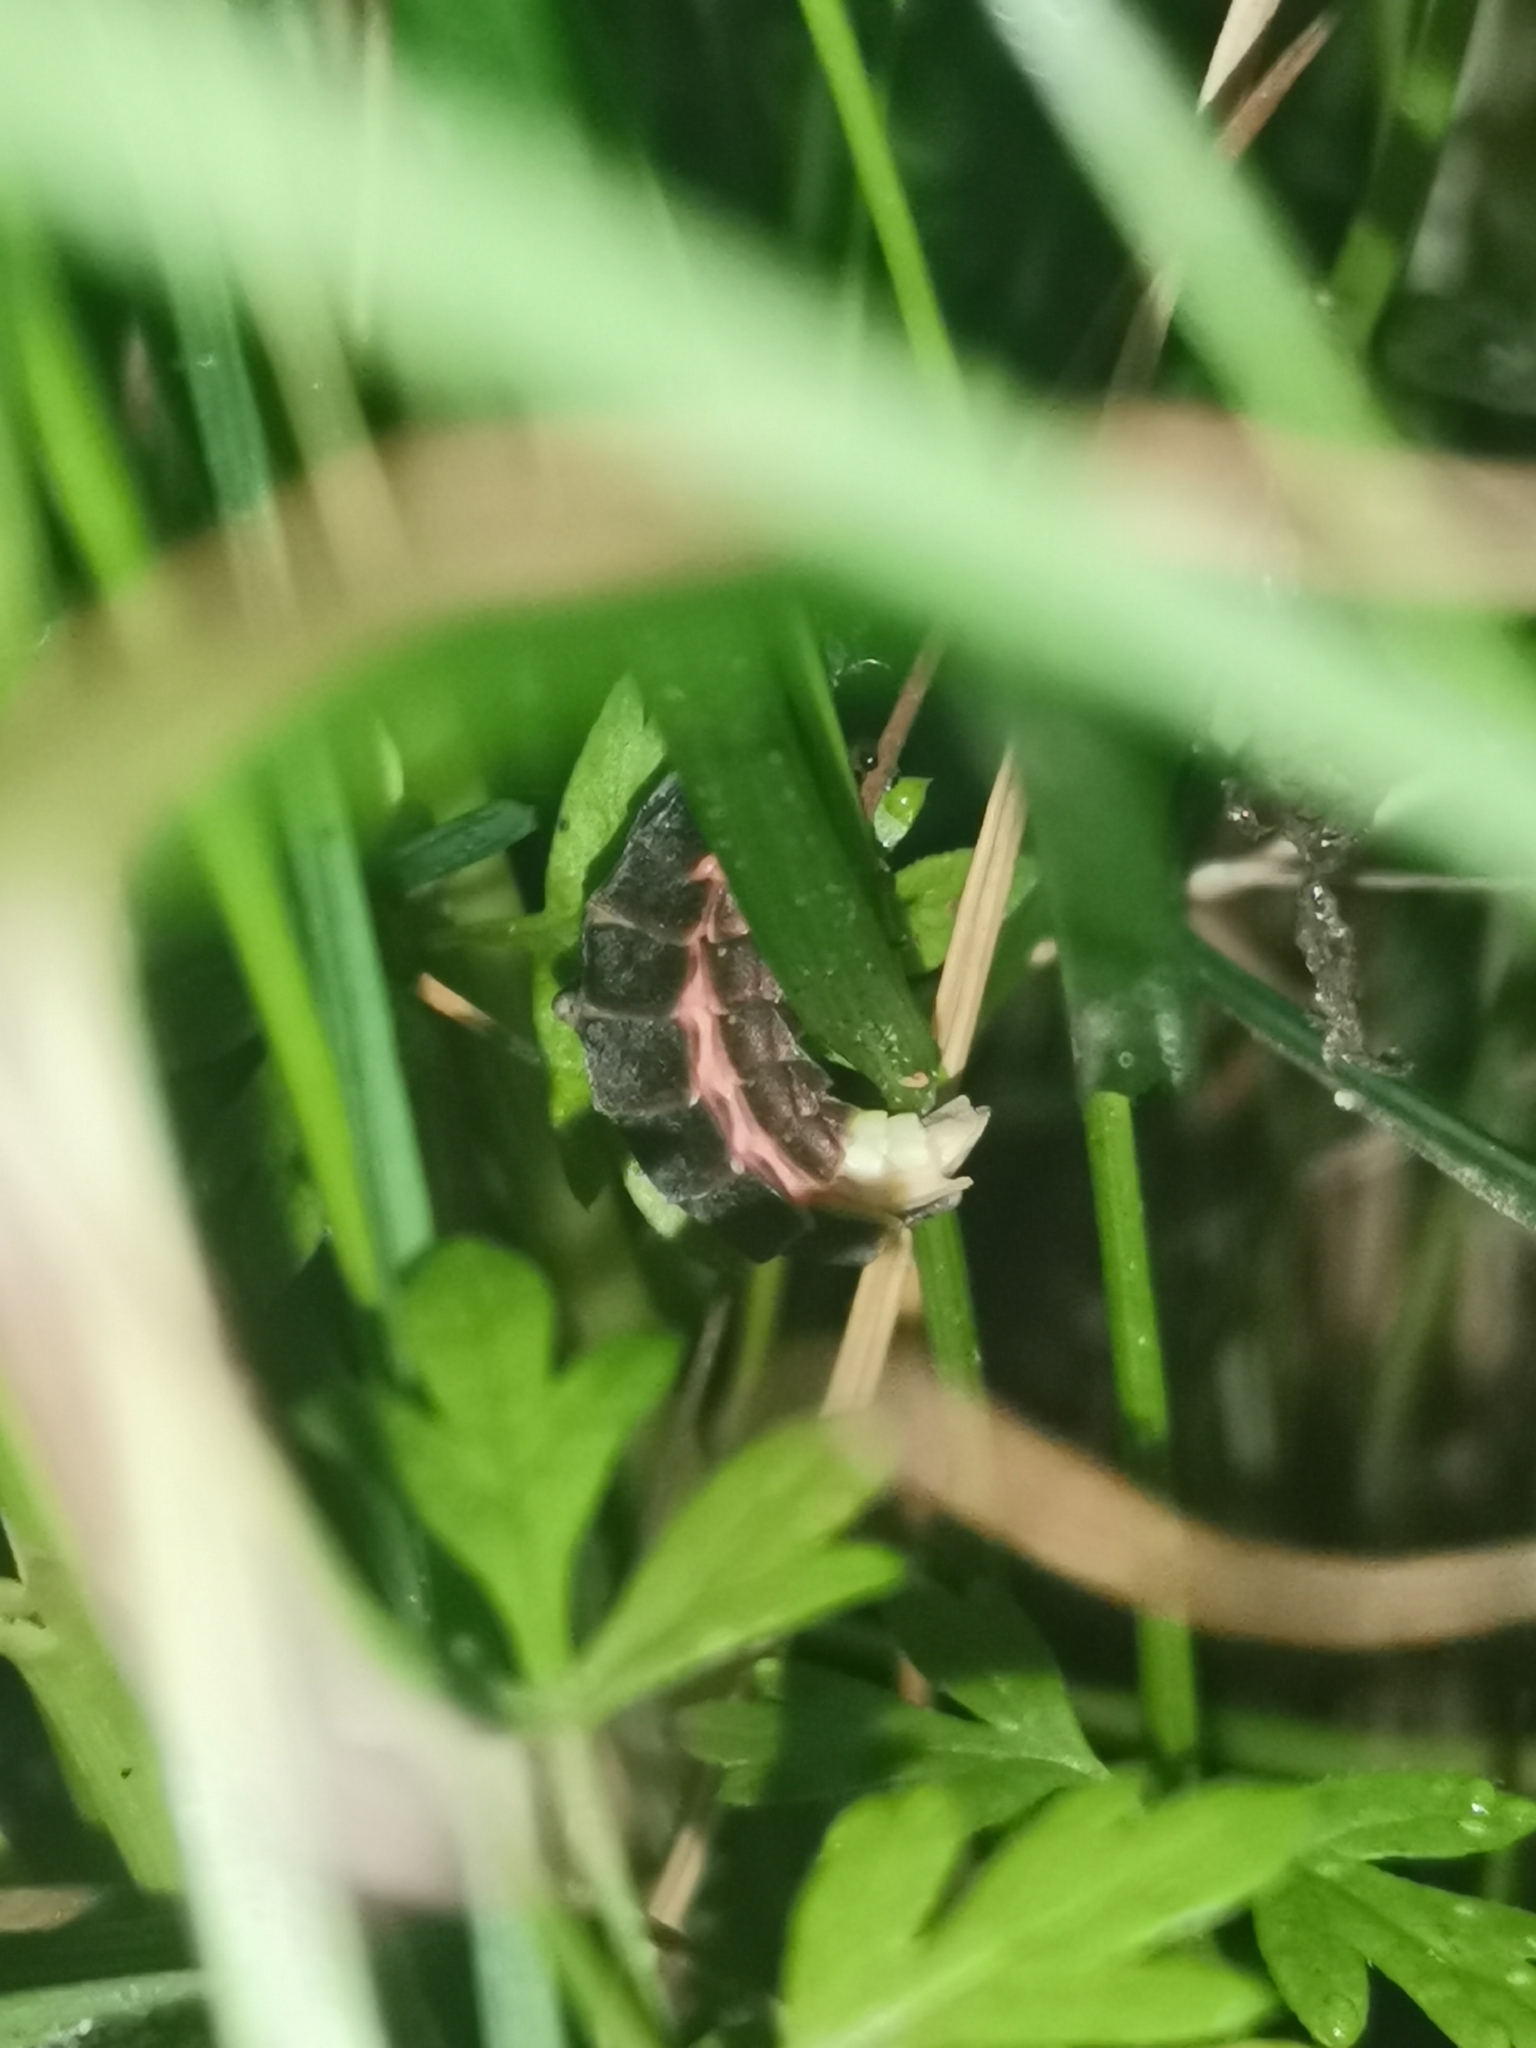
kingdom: Animalia
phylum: Arthropoda
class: Insecta
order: Coleoptera
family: Lampyridae
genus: Lampyris
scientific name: Lampyris noctiluca
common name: Glow-worm
